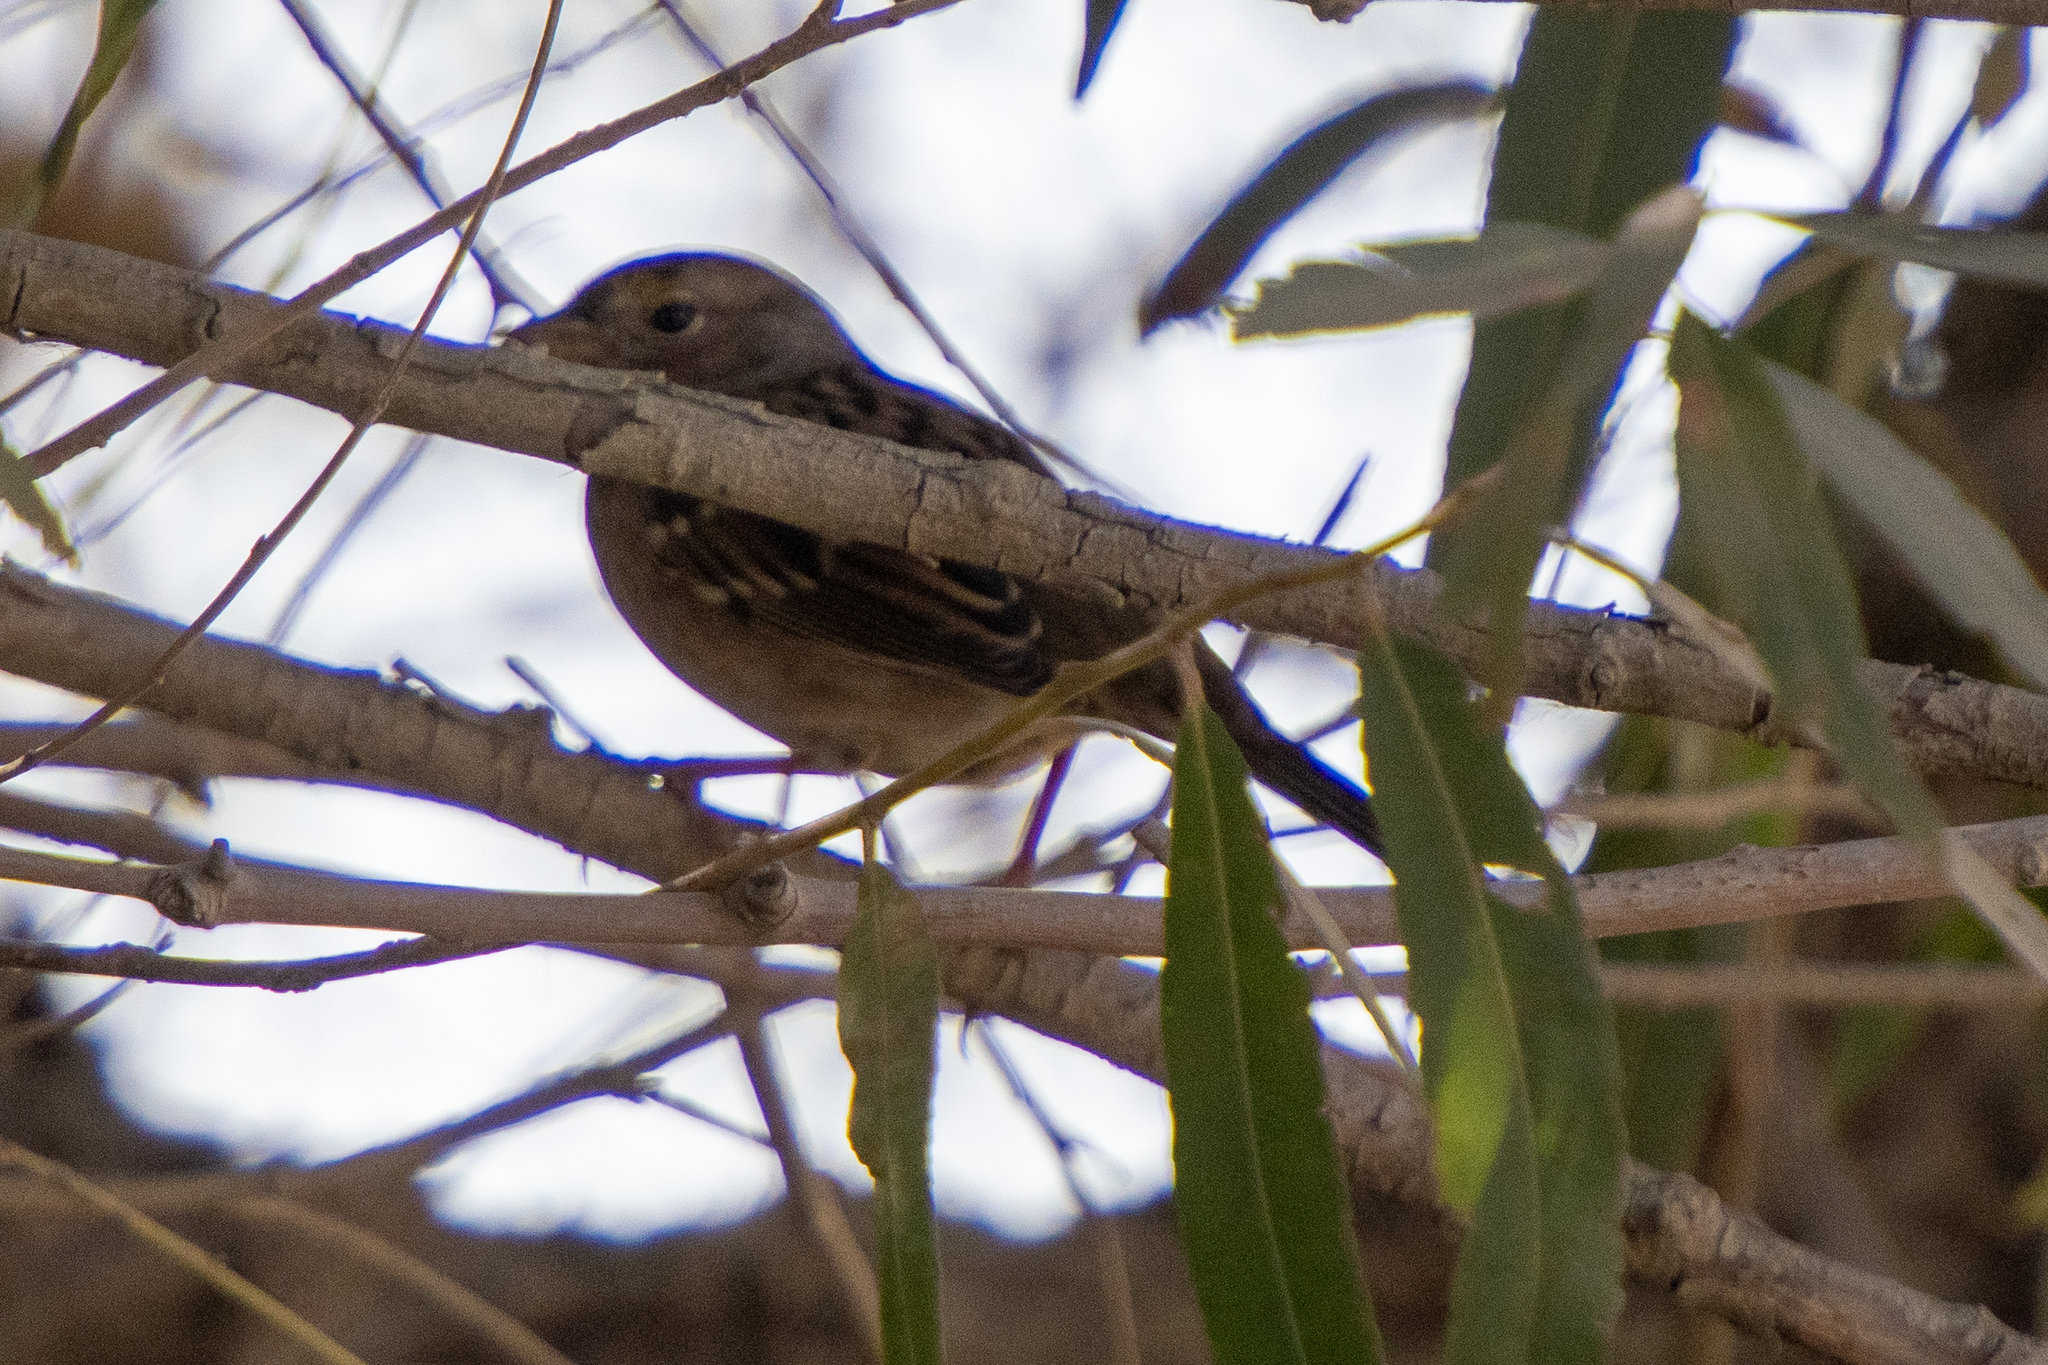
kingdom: Animalia
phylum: Chordata
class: Aves
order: Passeriformes
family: Passerellidae
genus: Zonotrichia
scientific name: Zonotrichia atricapilla
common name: Golden-crowned sparrow
